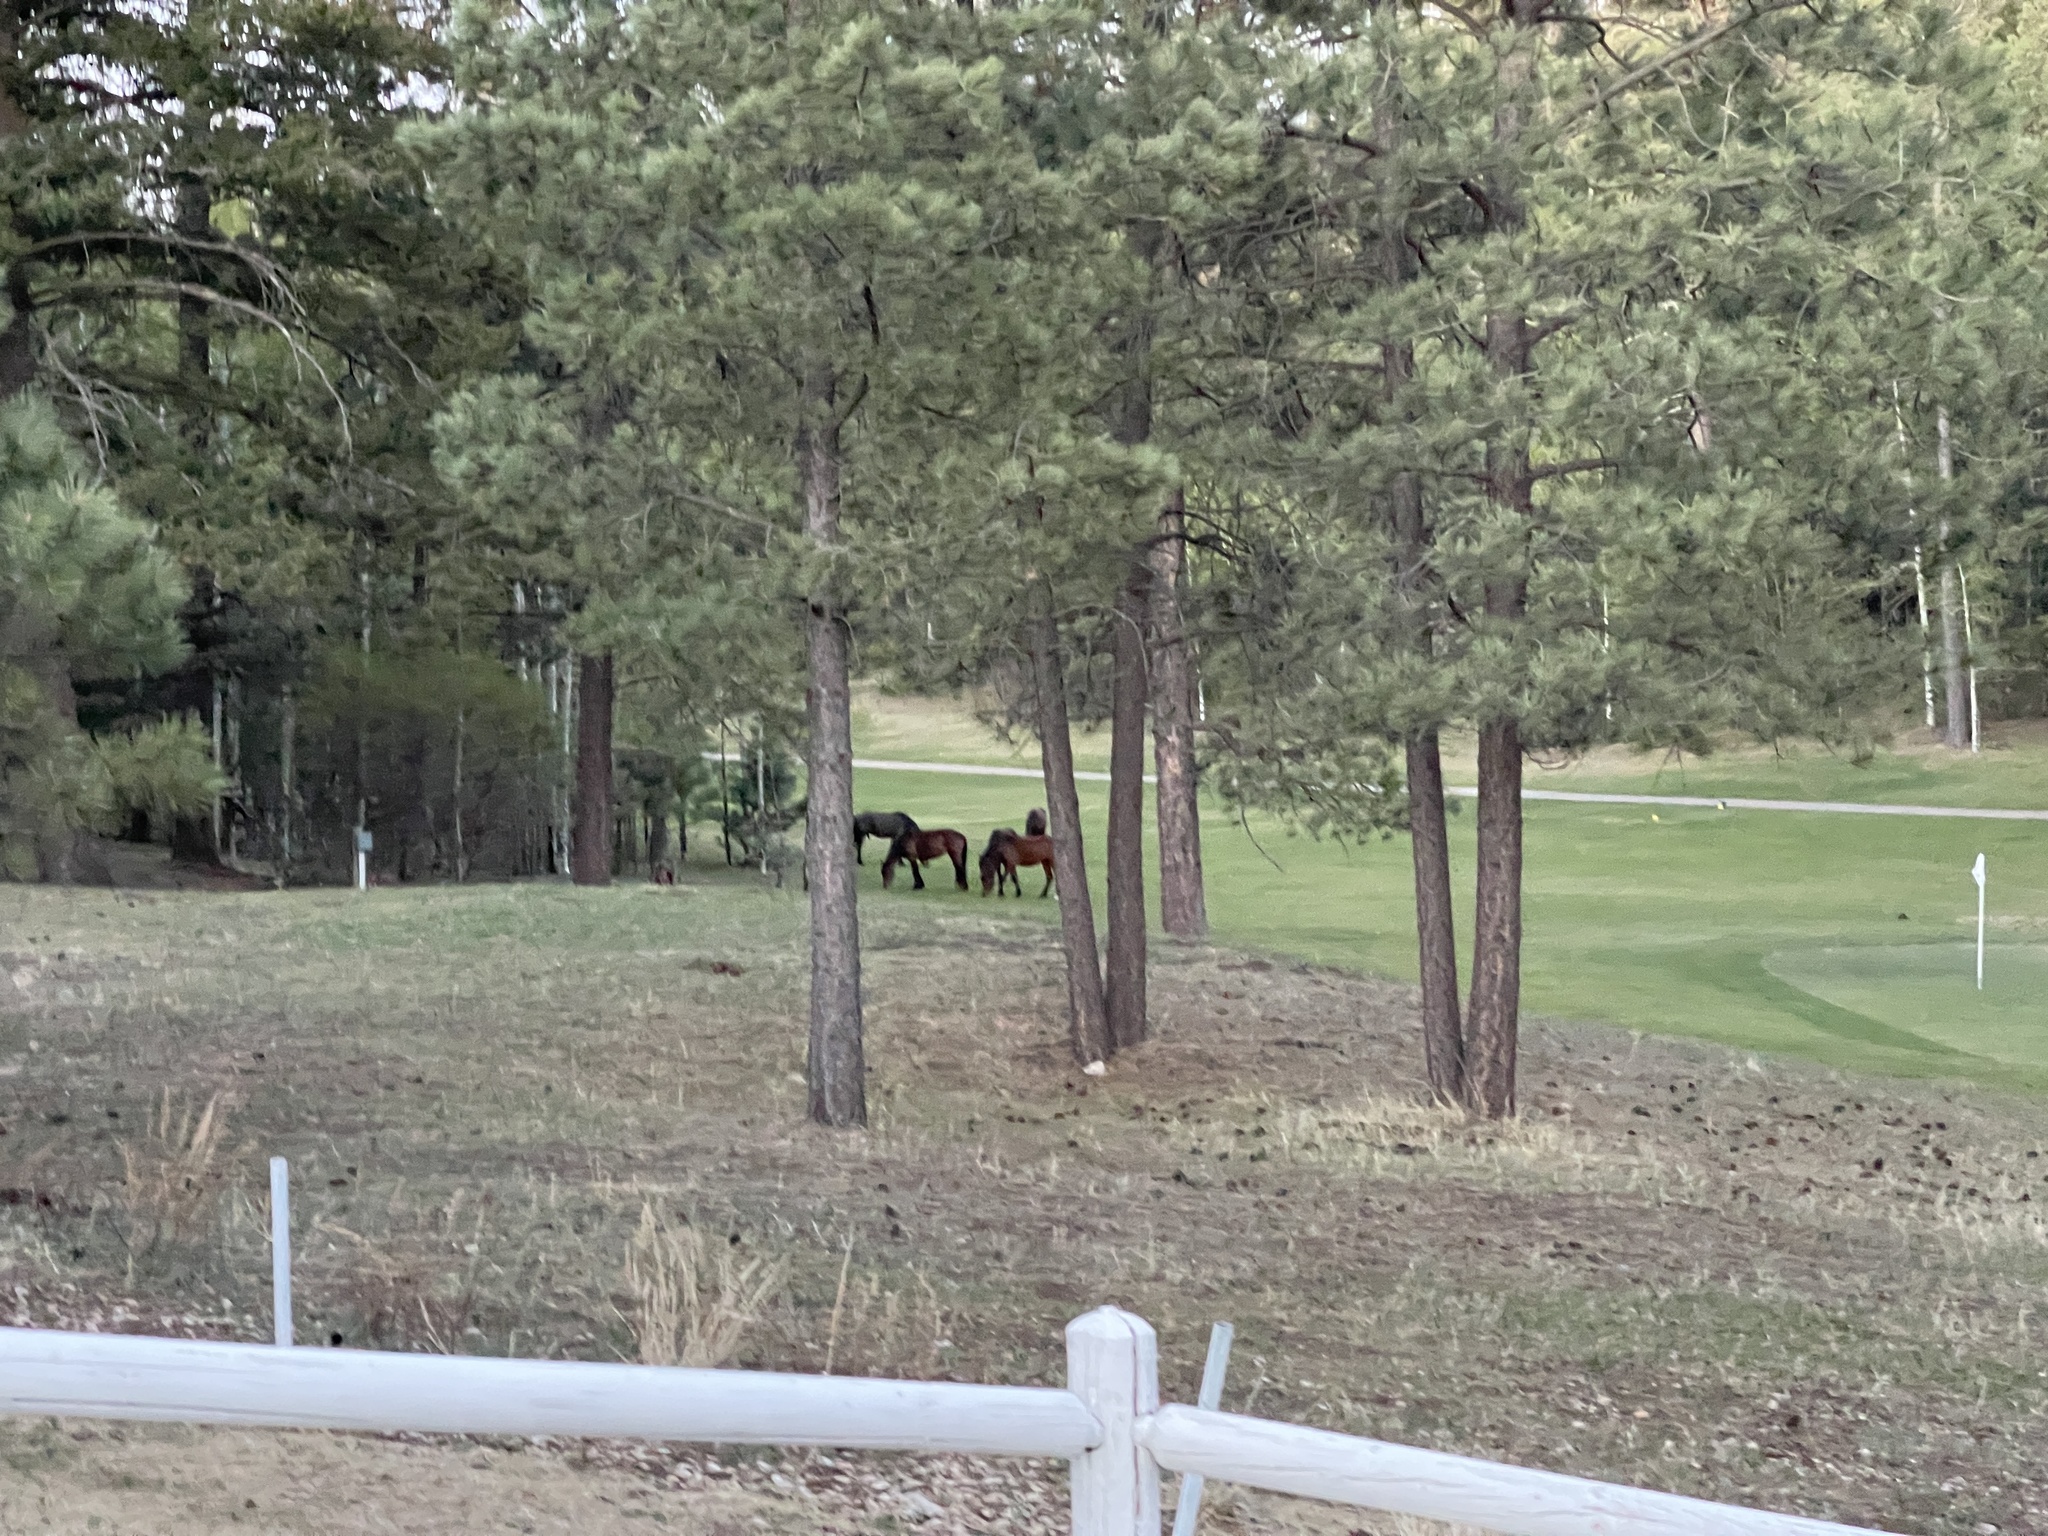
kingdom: Animalia
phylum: Chordata
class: Mammalia
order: Perissodactyla
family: Equidae
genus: Equus
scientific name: Equus caballus
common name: Horse
